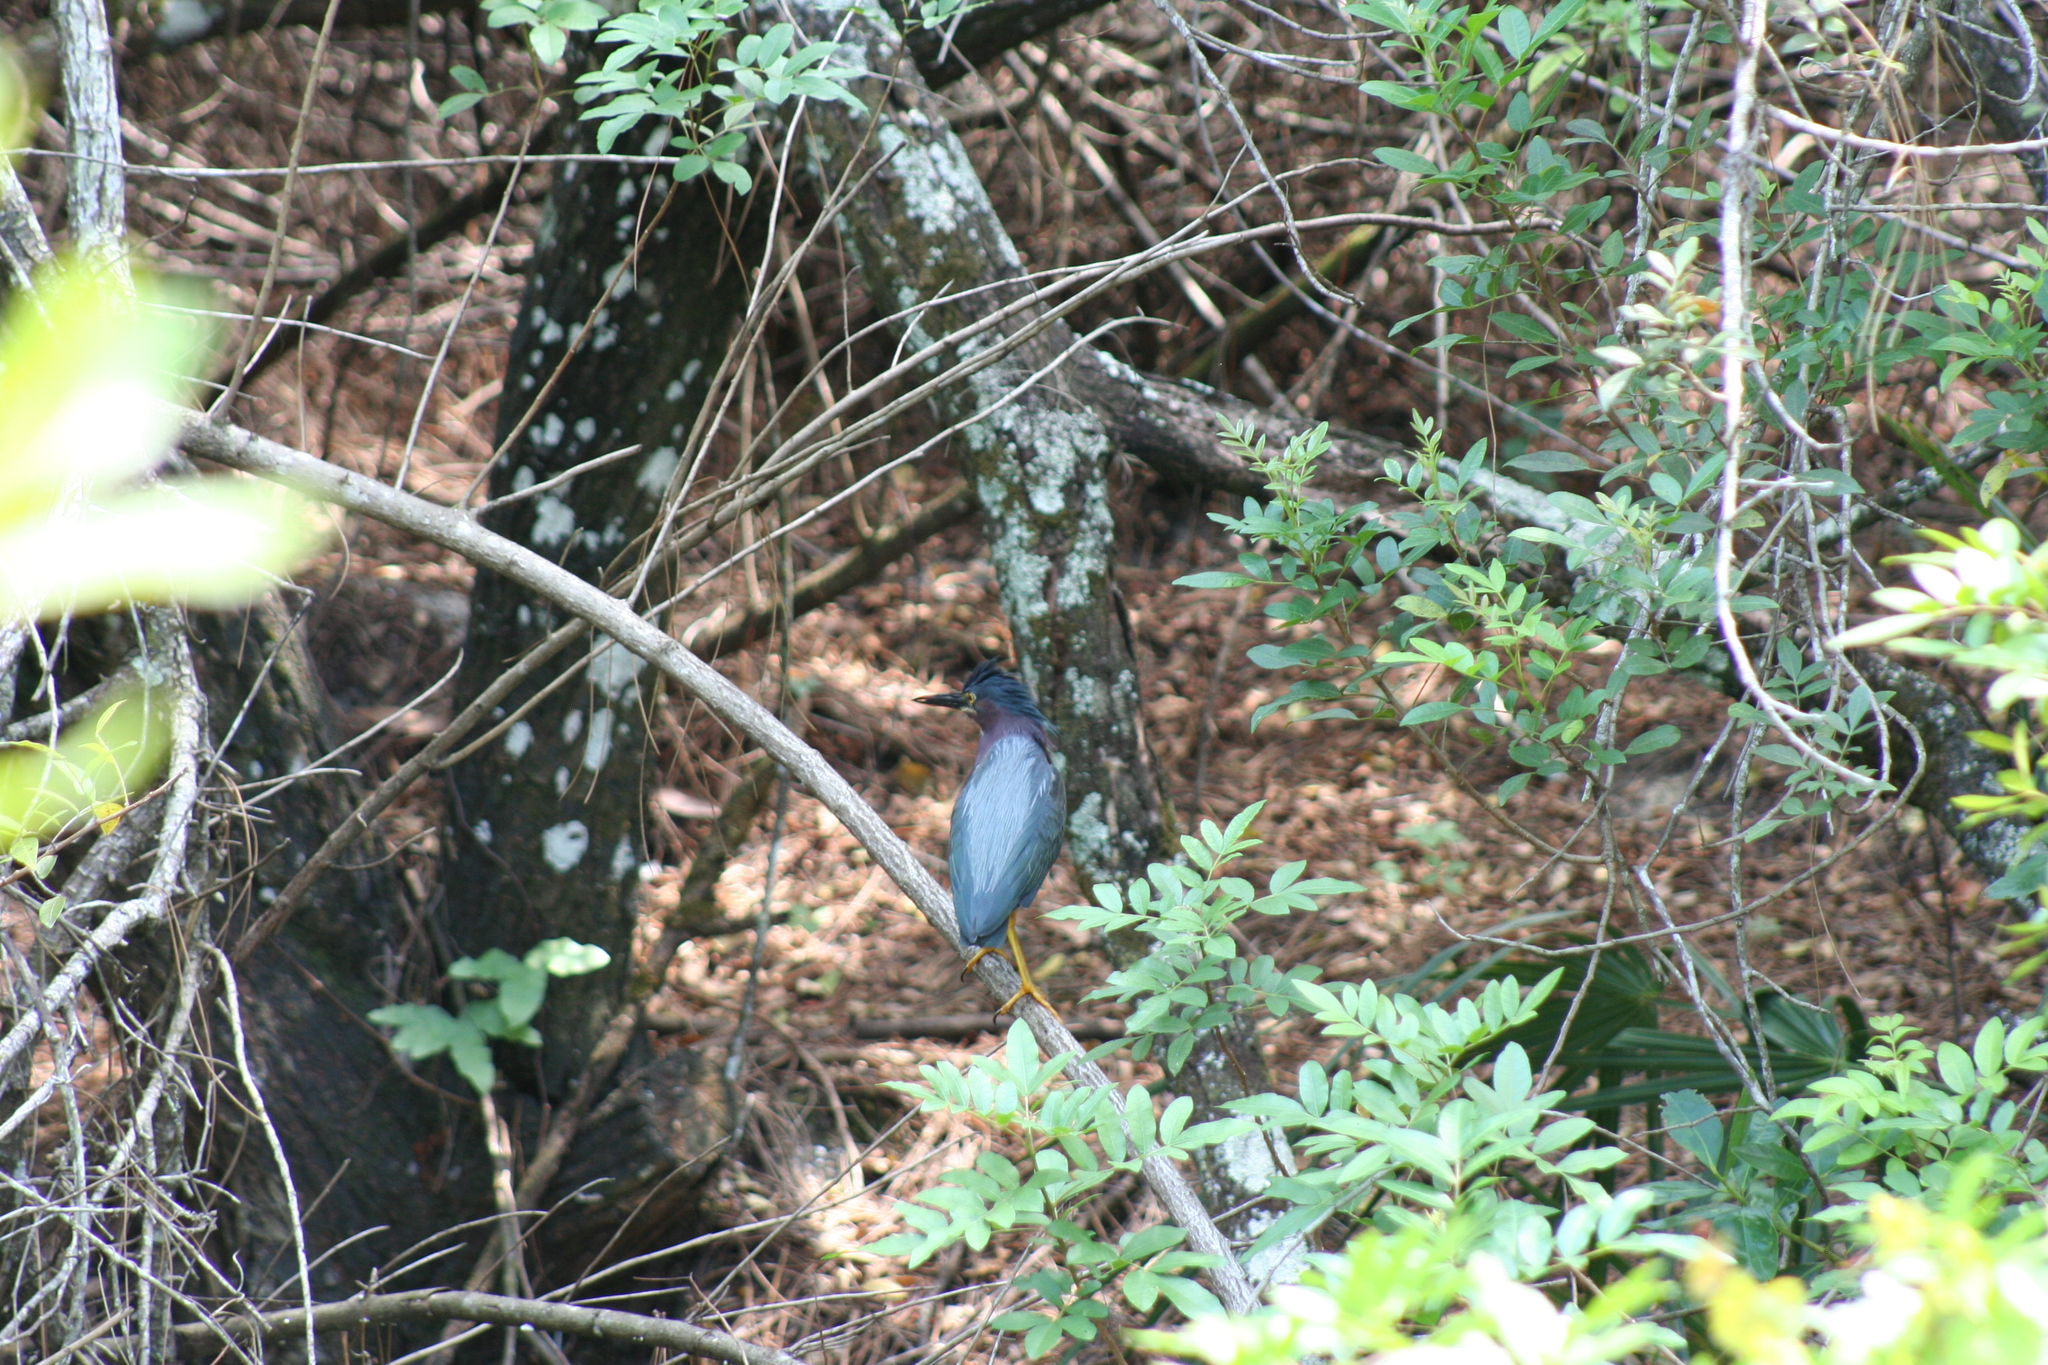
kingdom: Animalia
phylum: Chordata
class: Aves
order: Pelecaniformes
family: Ardeidae
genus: Butorides
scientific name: Butorides virescens
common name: Green heron
